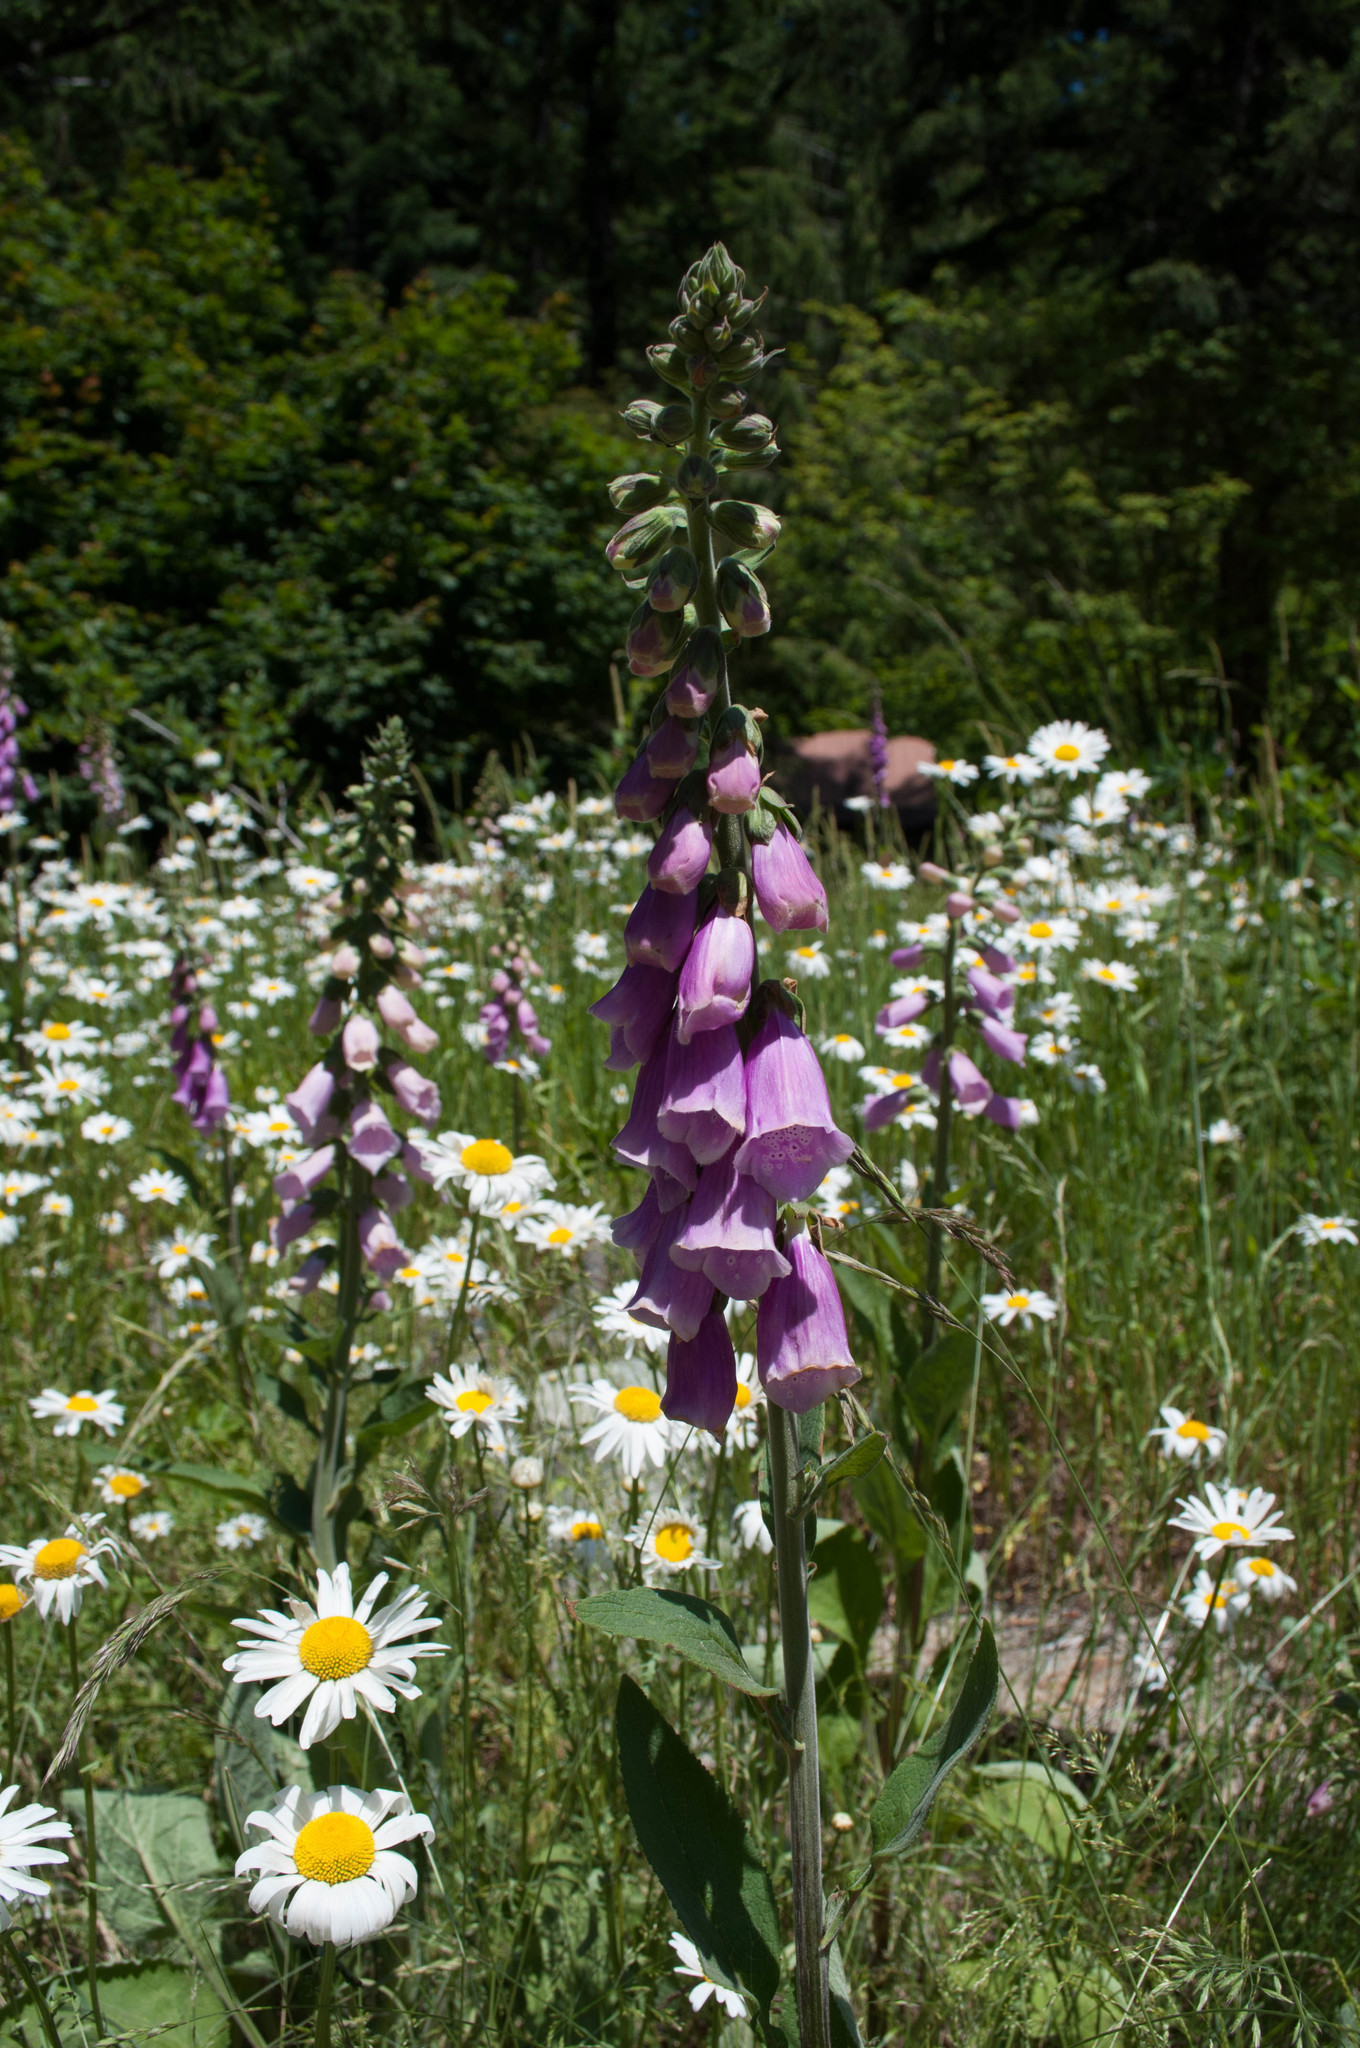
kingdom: Plantae
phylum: Tracheophyta
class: Magnoliopsida
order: Lamiales
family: Plantaginaceae
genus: Digitalis
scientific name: Digitalis purpurea
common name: Foxglove
